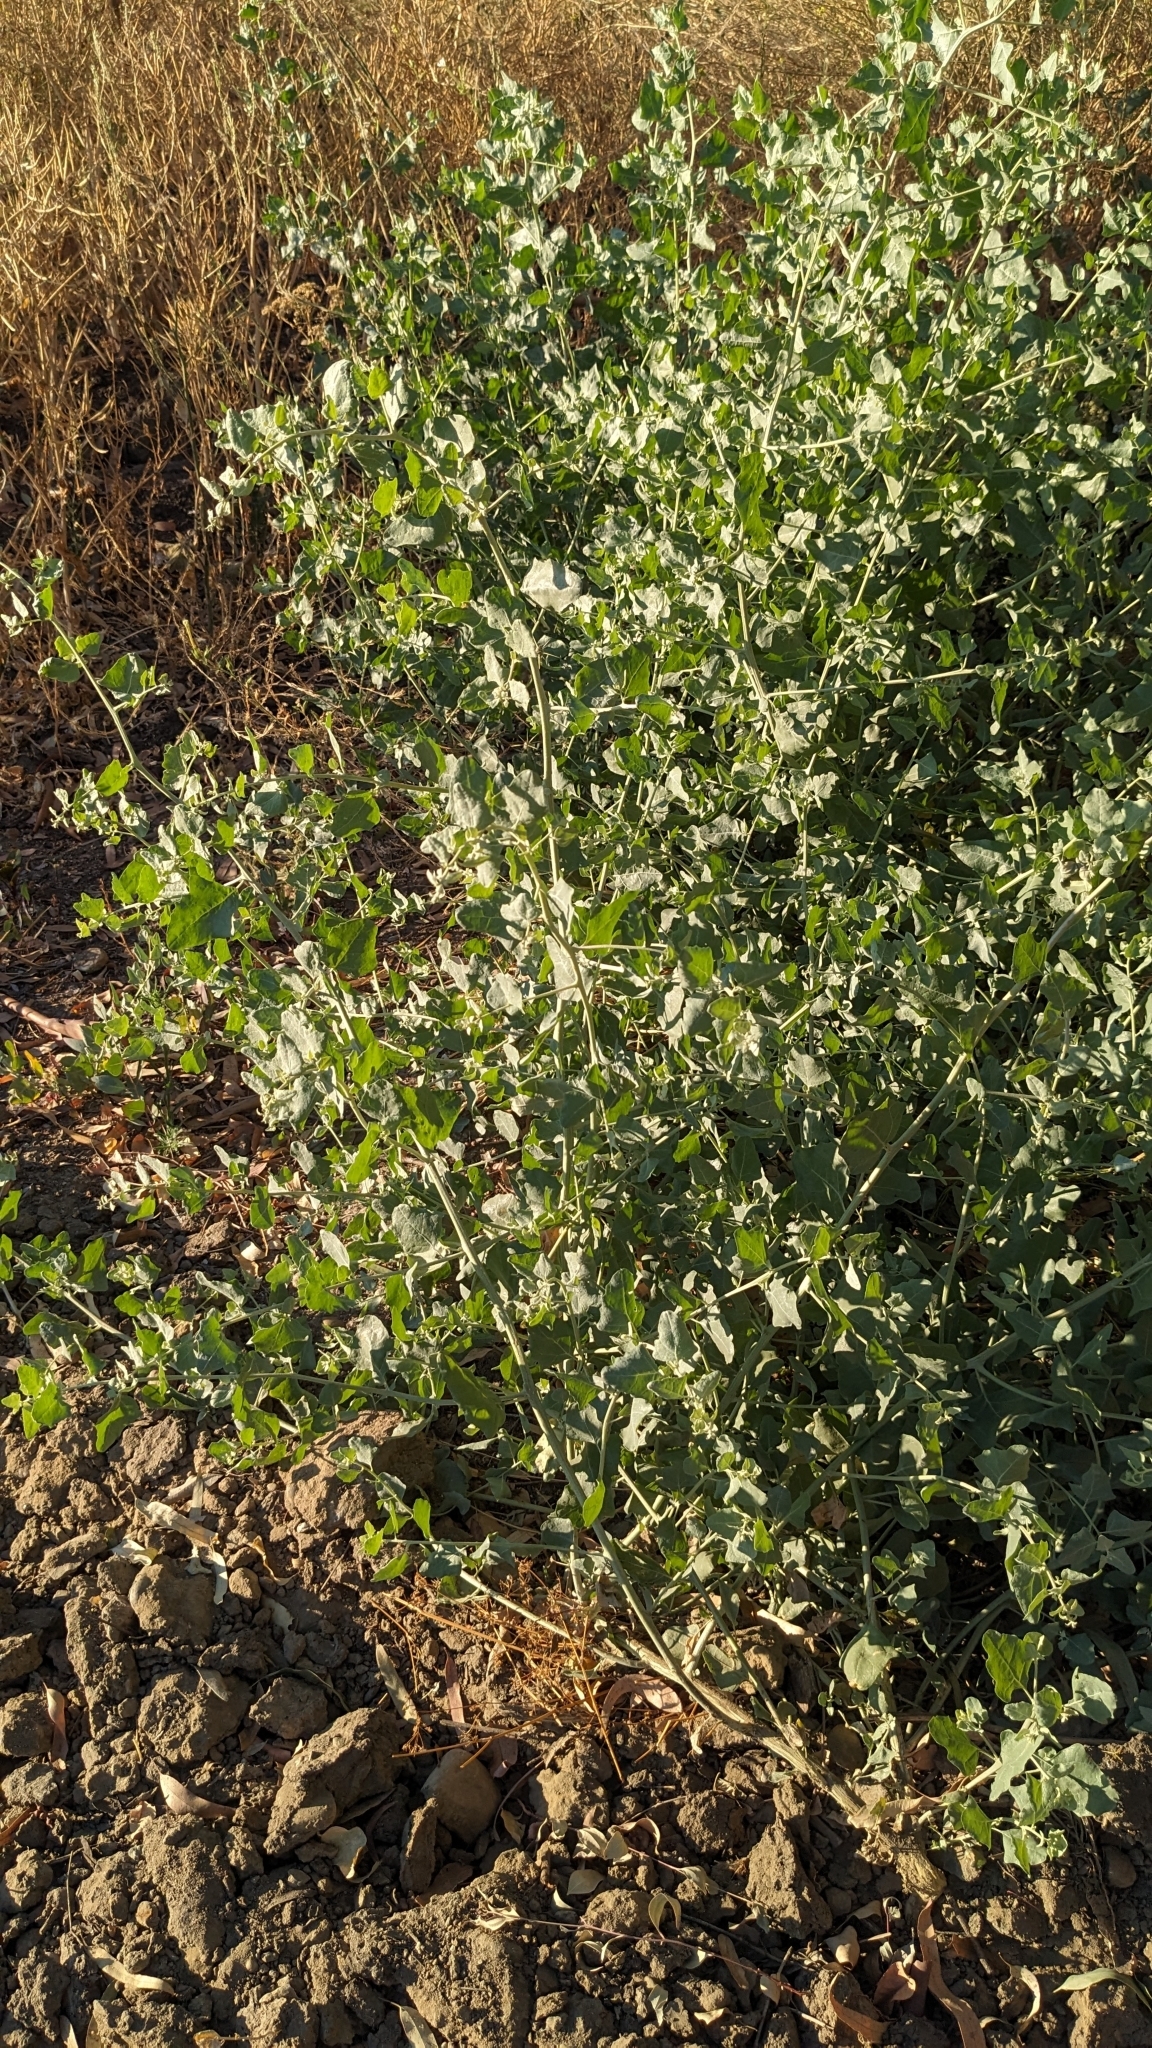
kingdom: Plantae
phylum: Tracheophyta
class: Magnoliopsida
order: Caryophyllales
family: Amaranthaceae
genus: Atriplex
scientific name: Atriplex lentiformis
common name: Big saltbush
